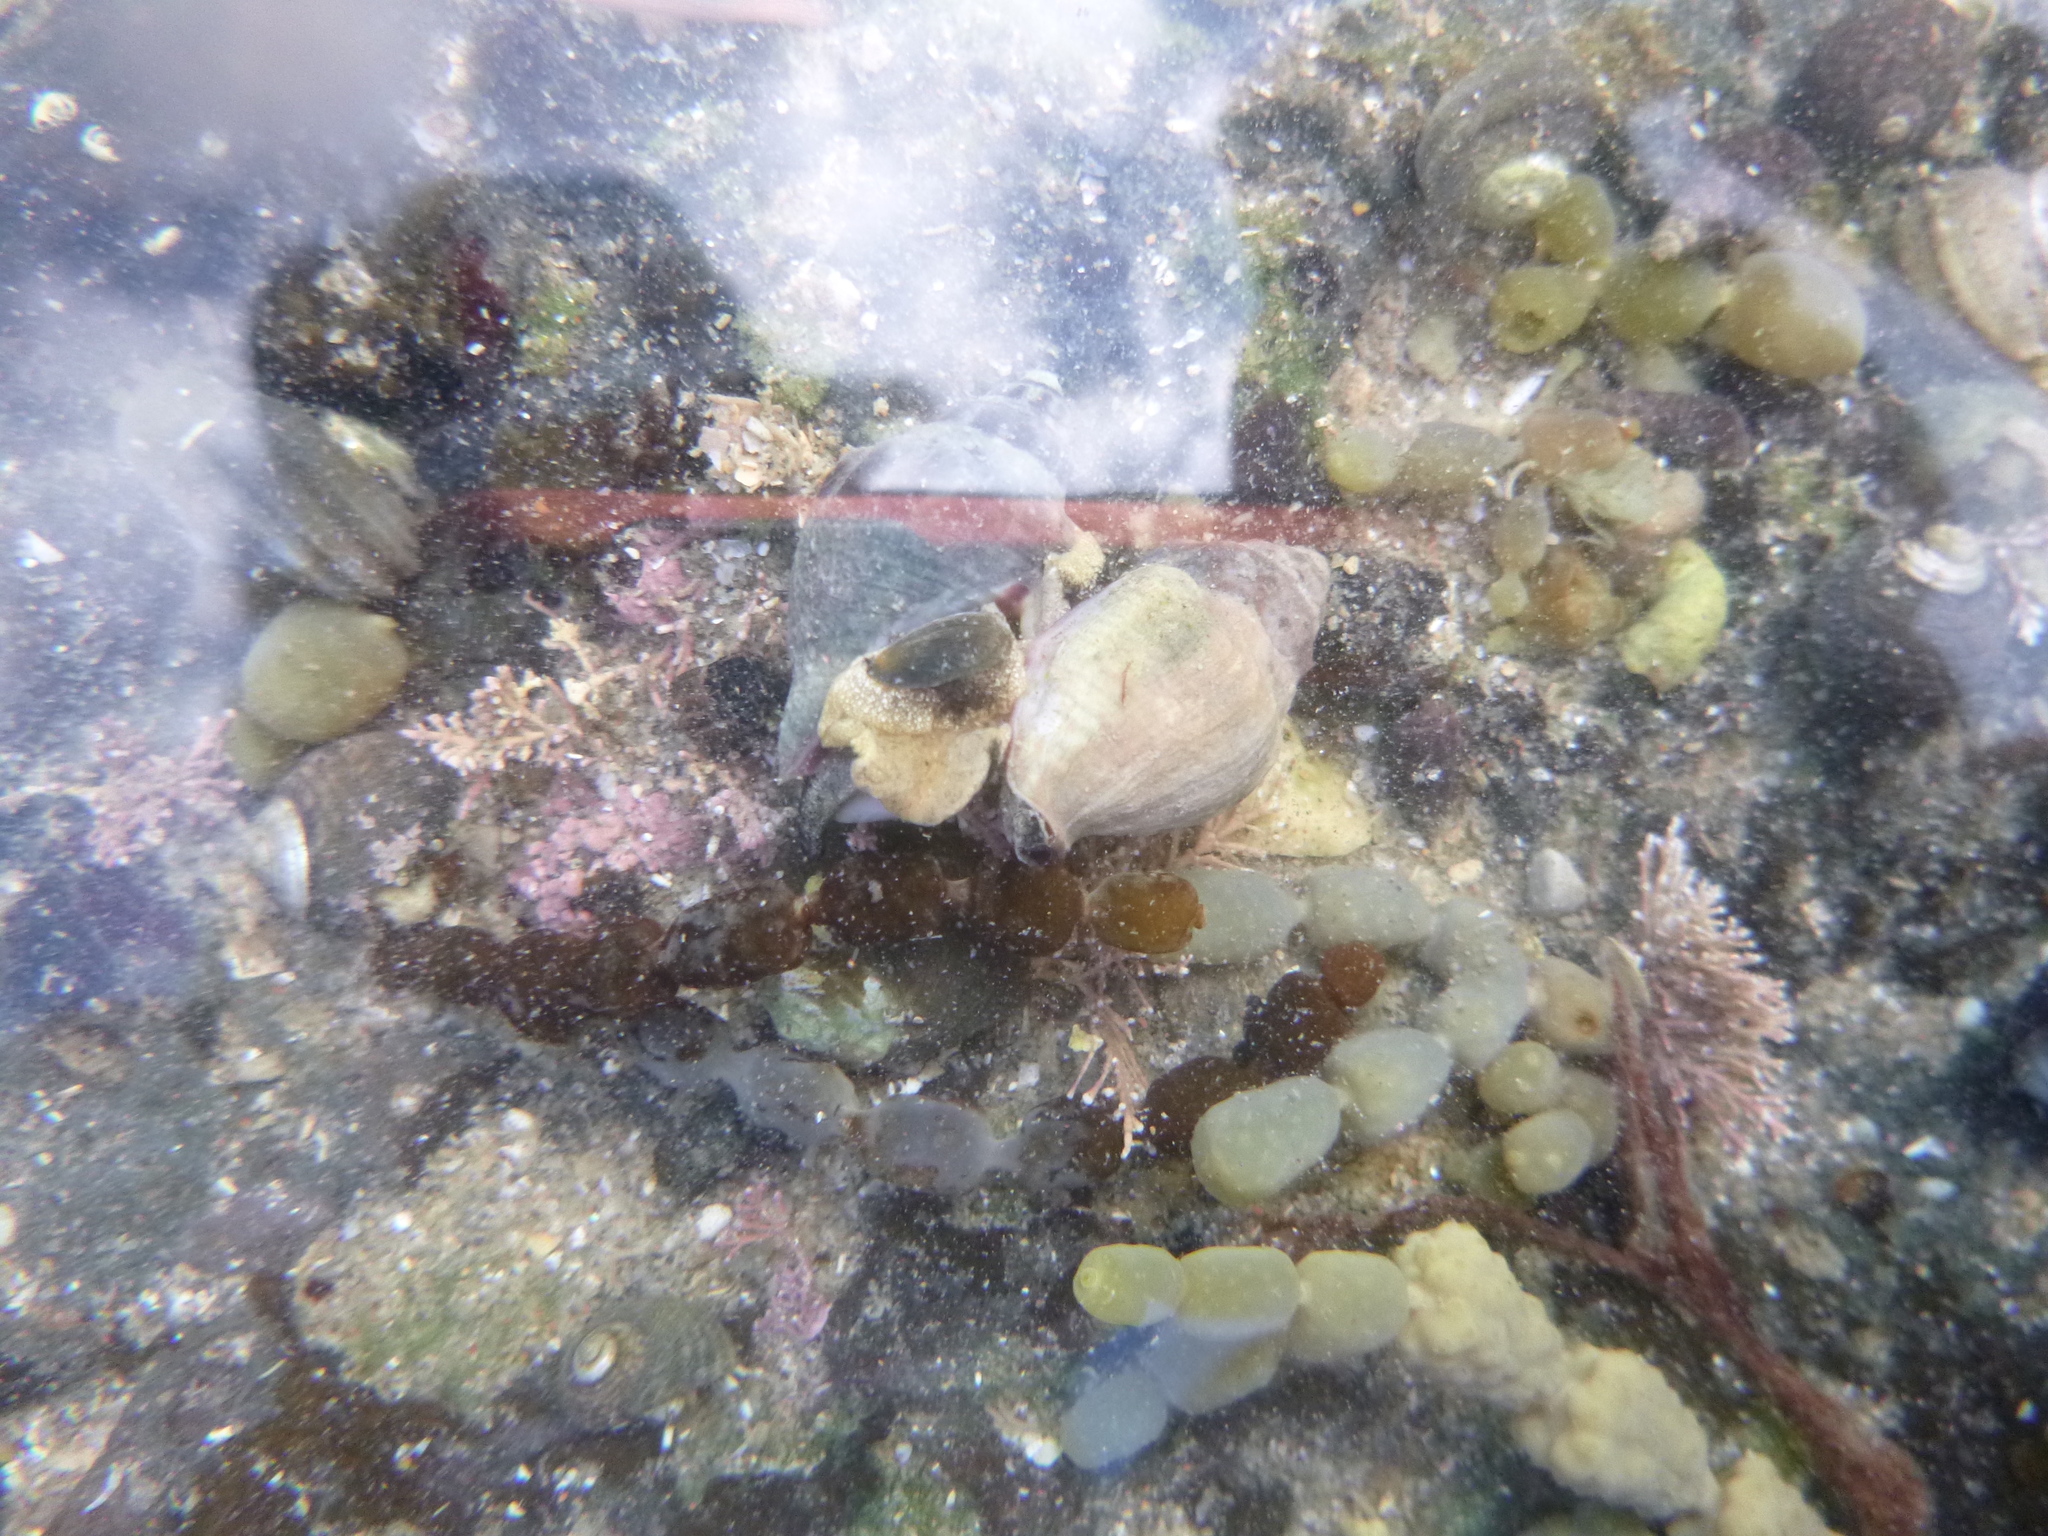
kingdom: Animalia
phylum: Mollusca
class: Gastropoda
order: Neogastropoda
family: Cominellidae
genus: Cominella
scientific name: Cominella glandiformis
